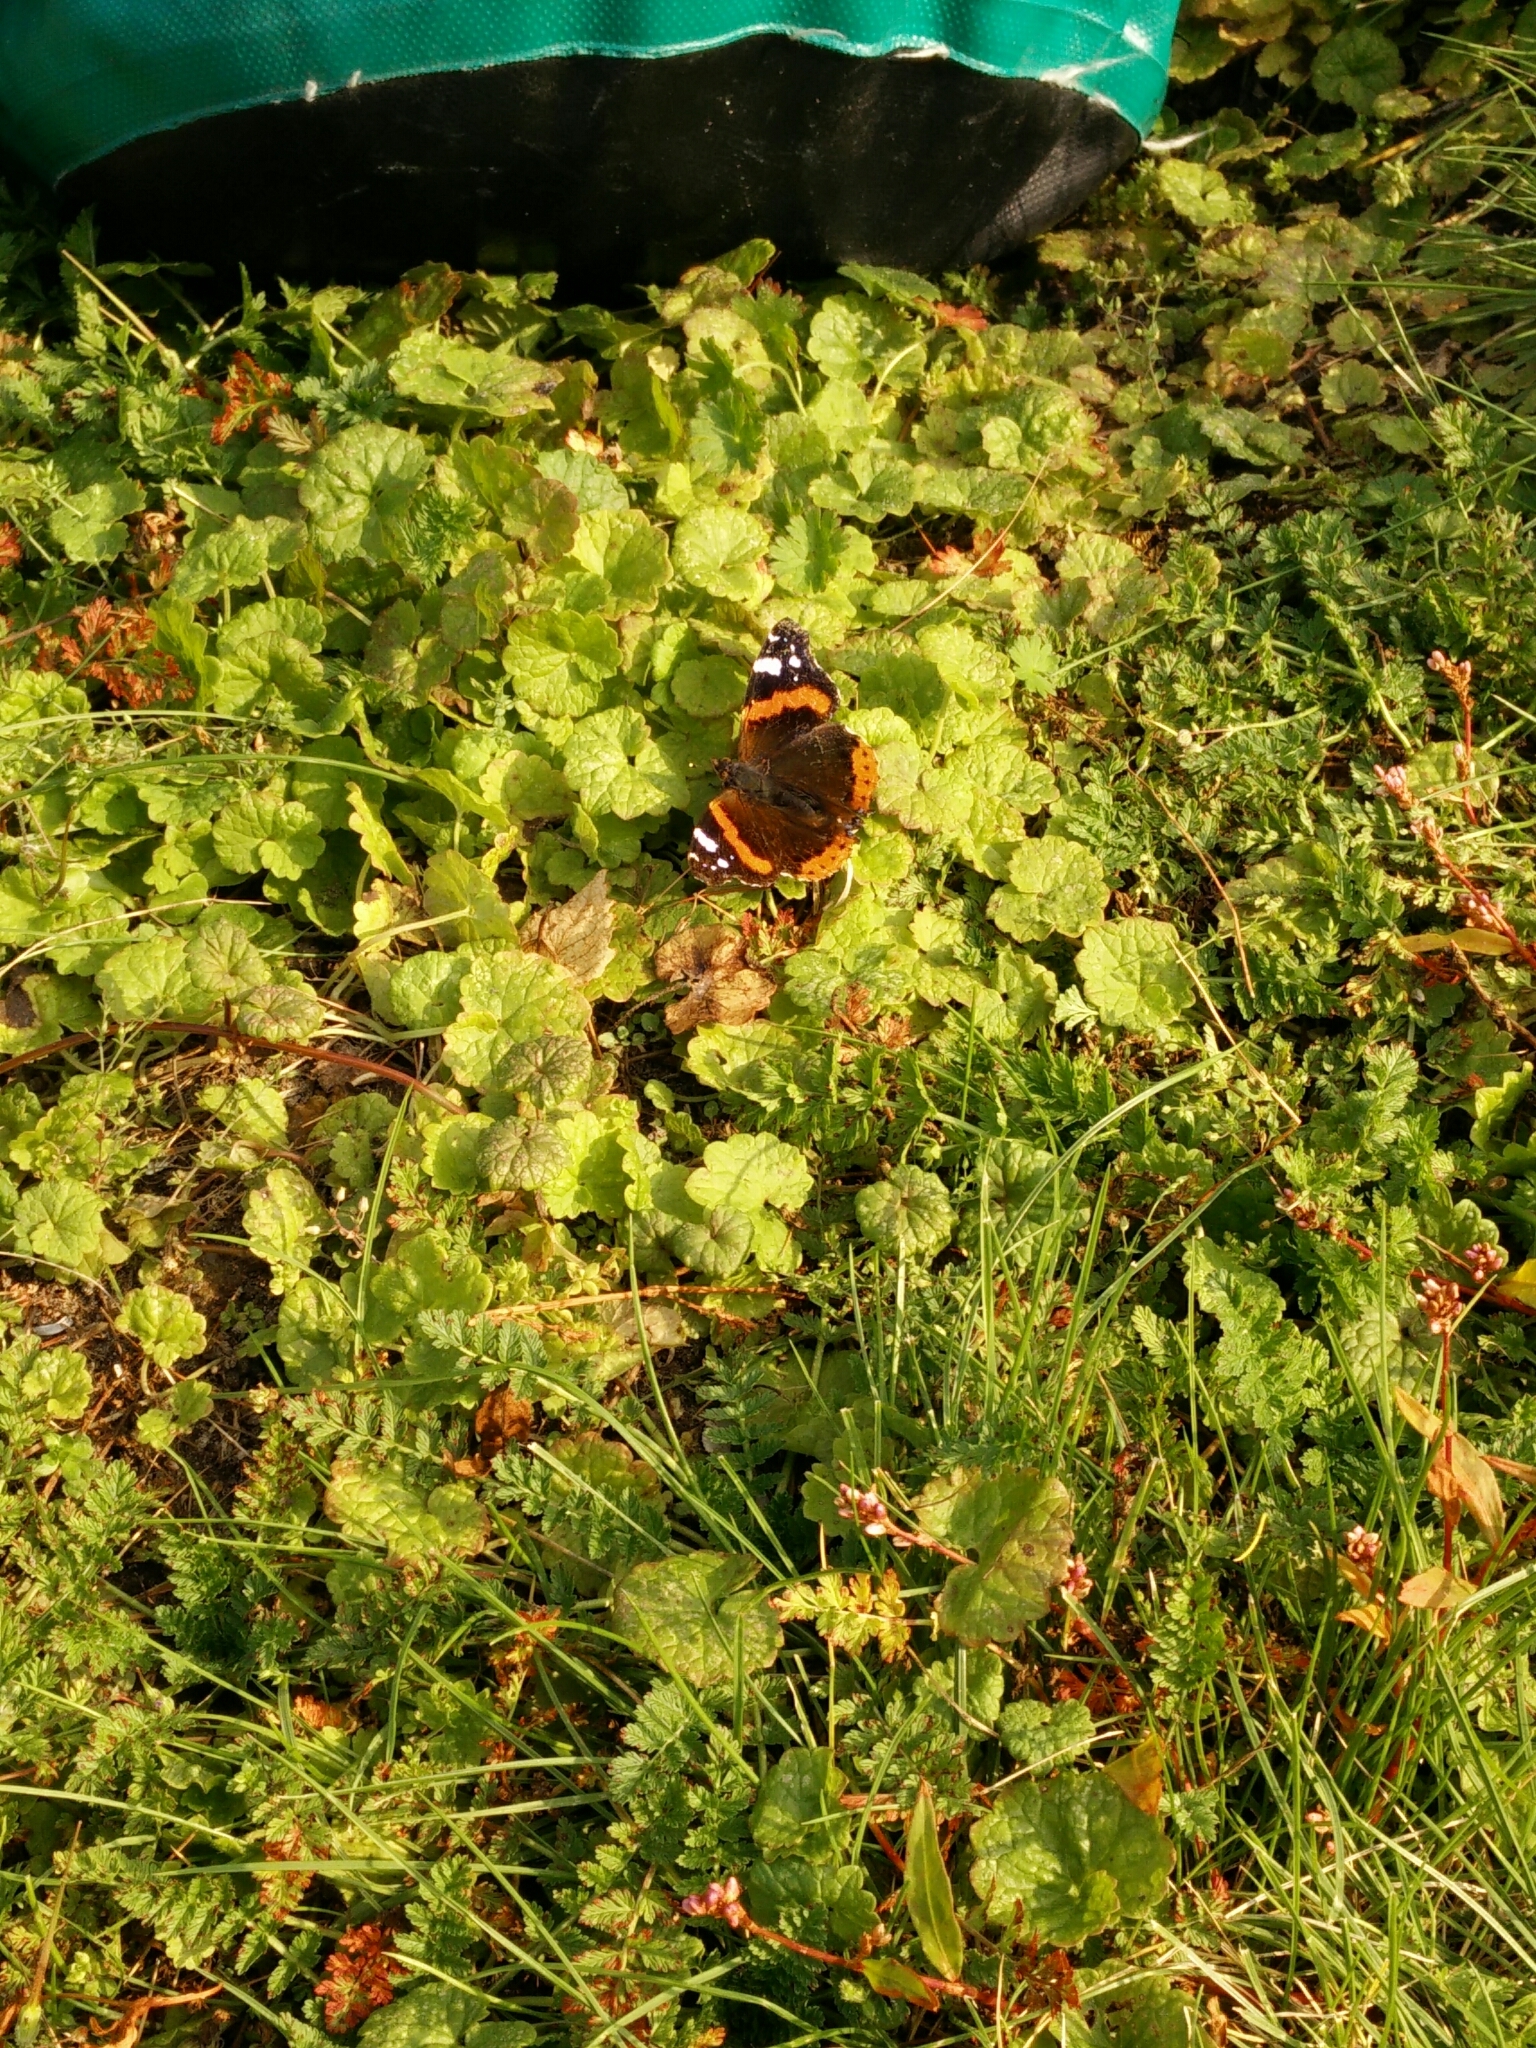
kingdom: Animalia
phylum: Arthropoda
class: Insecta
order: Lepidoptera
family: Nymphalidae
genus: Vanessa
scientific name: Vanessa atalanta
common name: Red admiral
